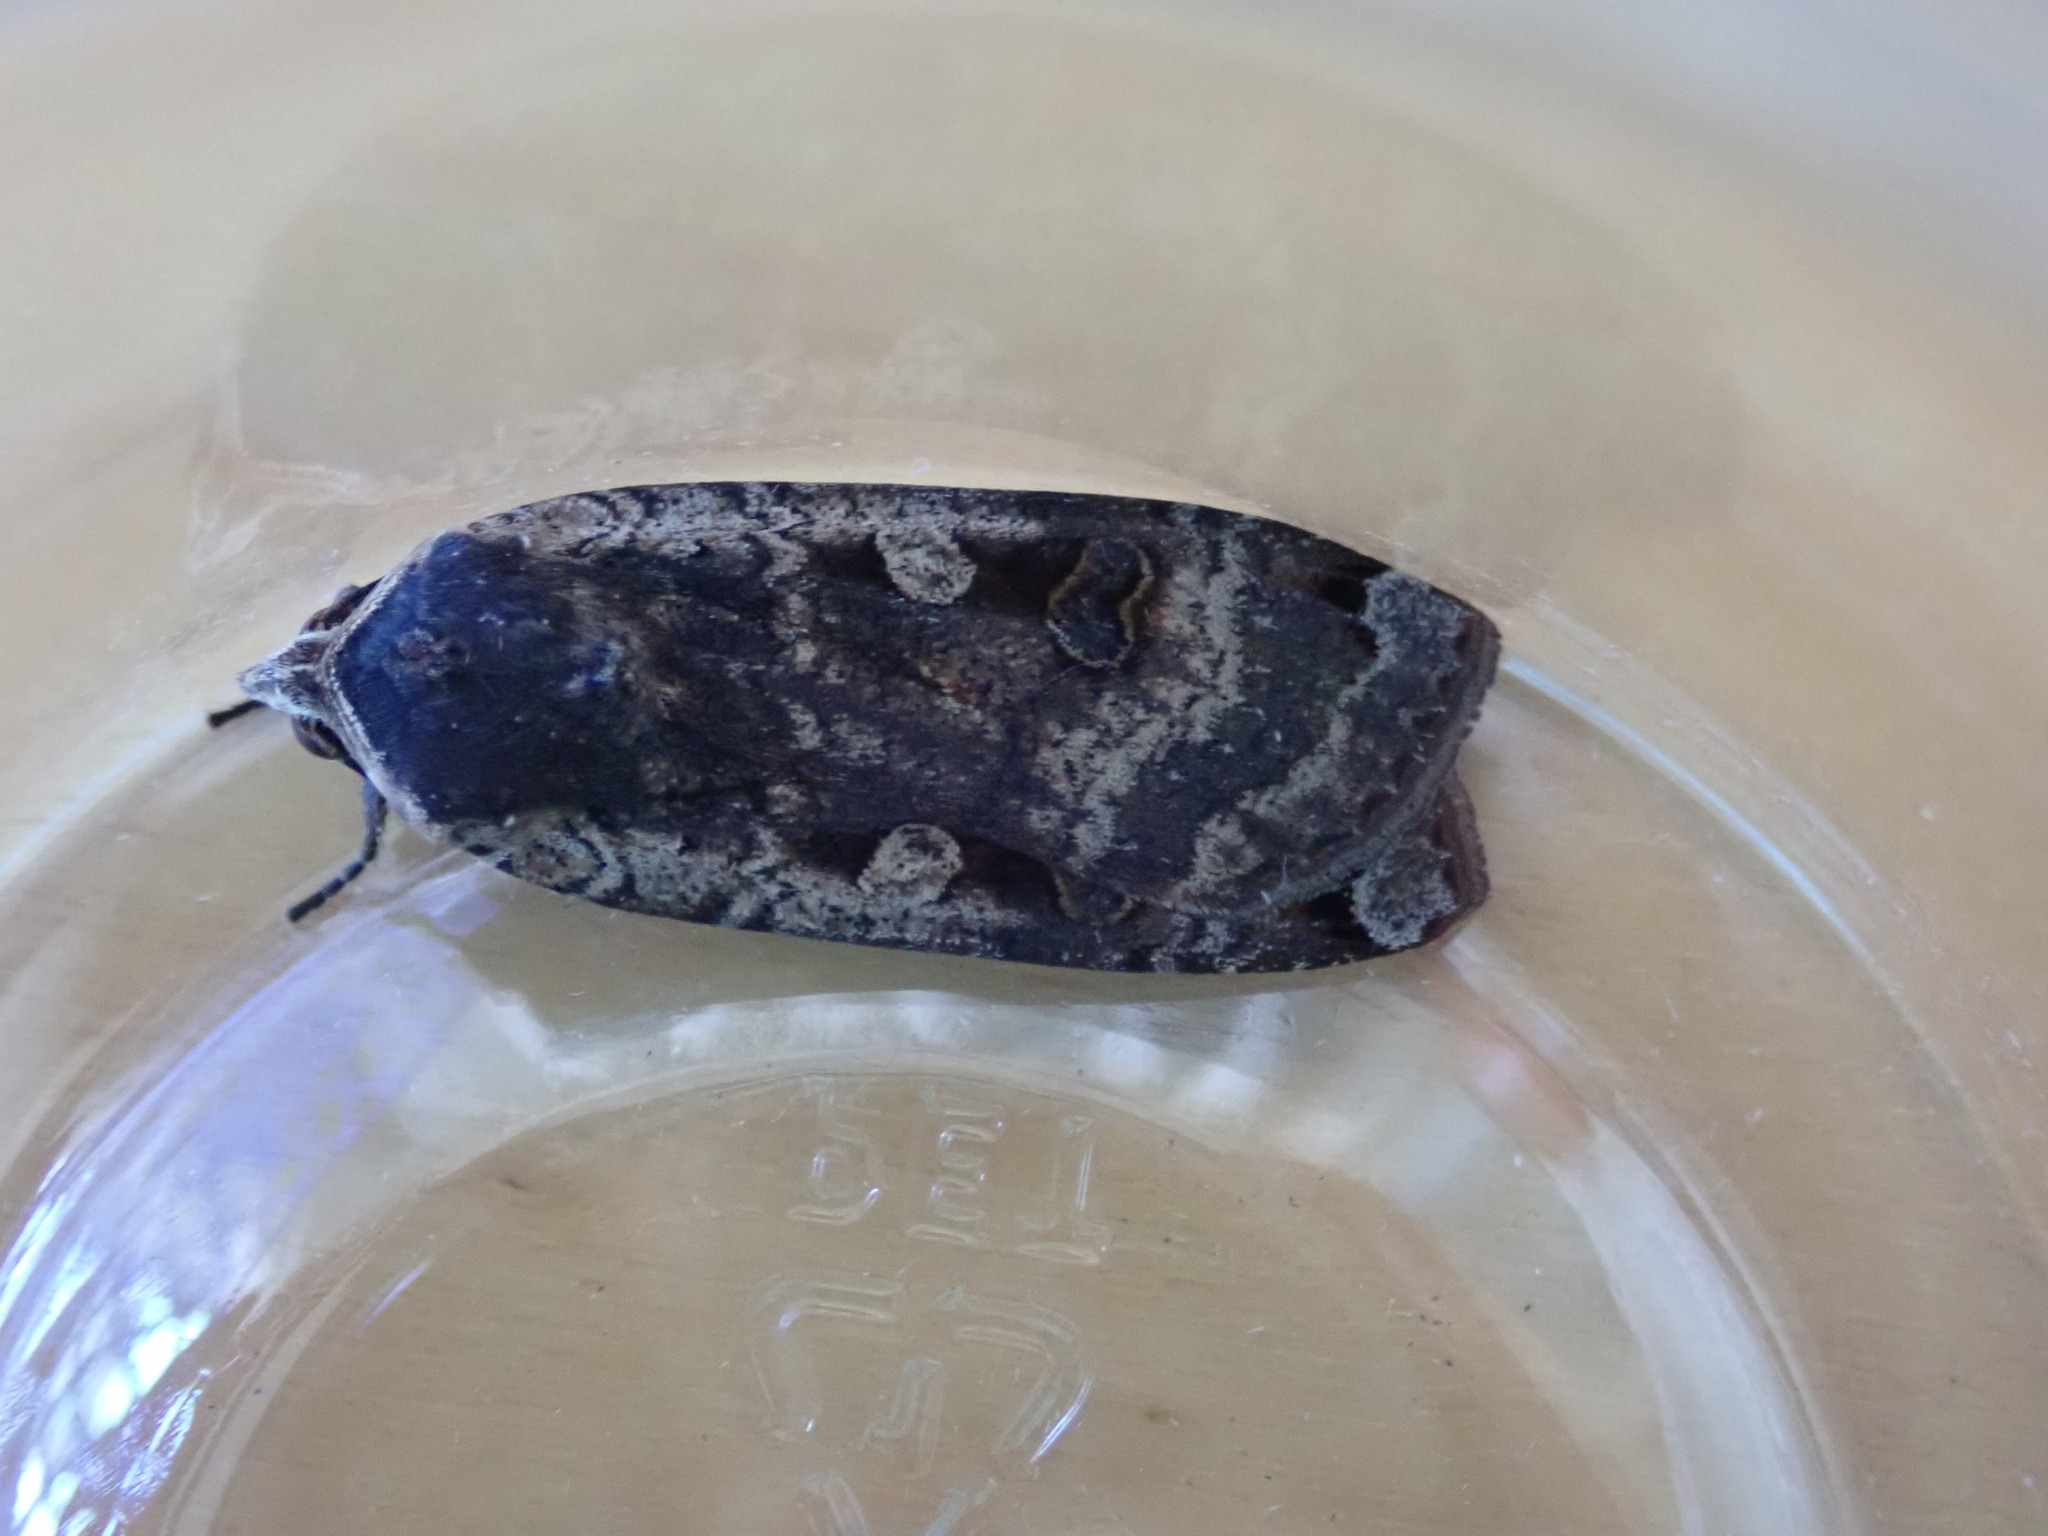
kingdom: Animalia
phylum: Arthropoda
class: Insecta
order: Lepidoptera
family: Noctuidae
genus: Noctua
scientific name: Noctua pronuba
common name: Large yellow underwing
